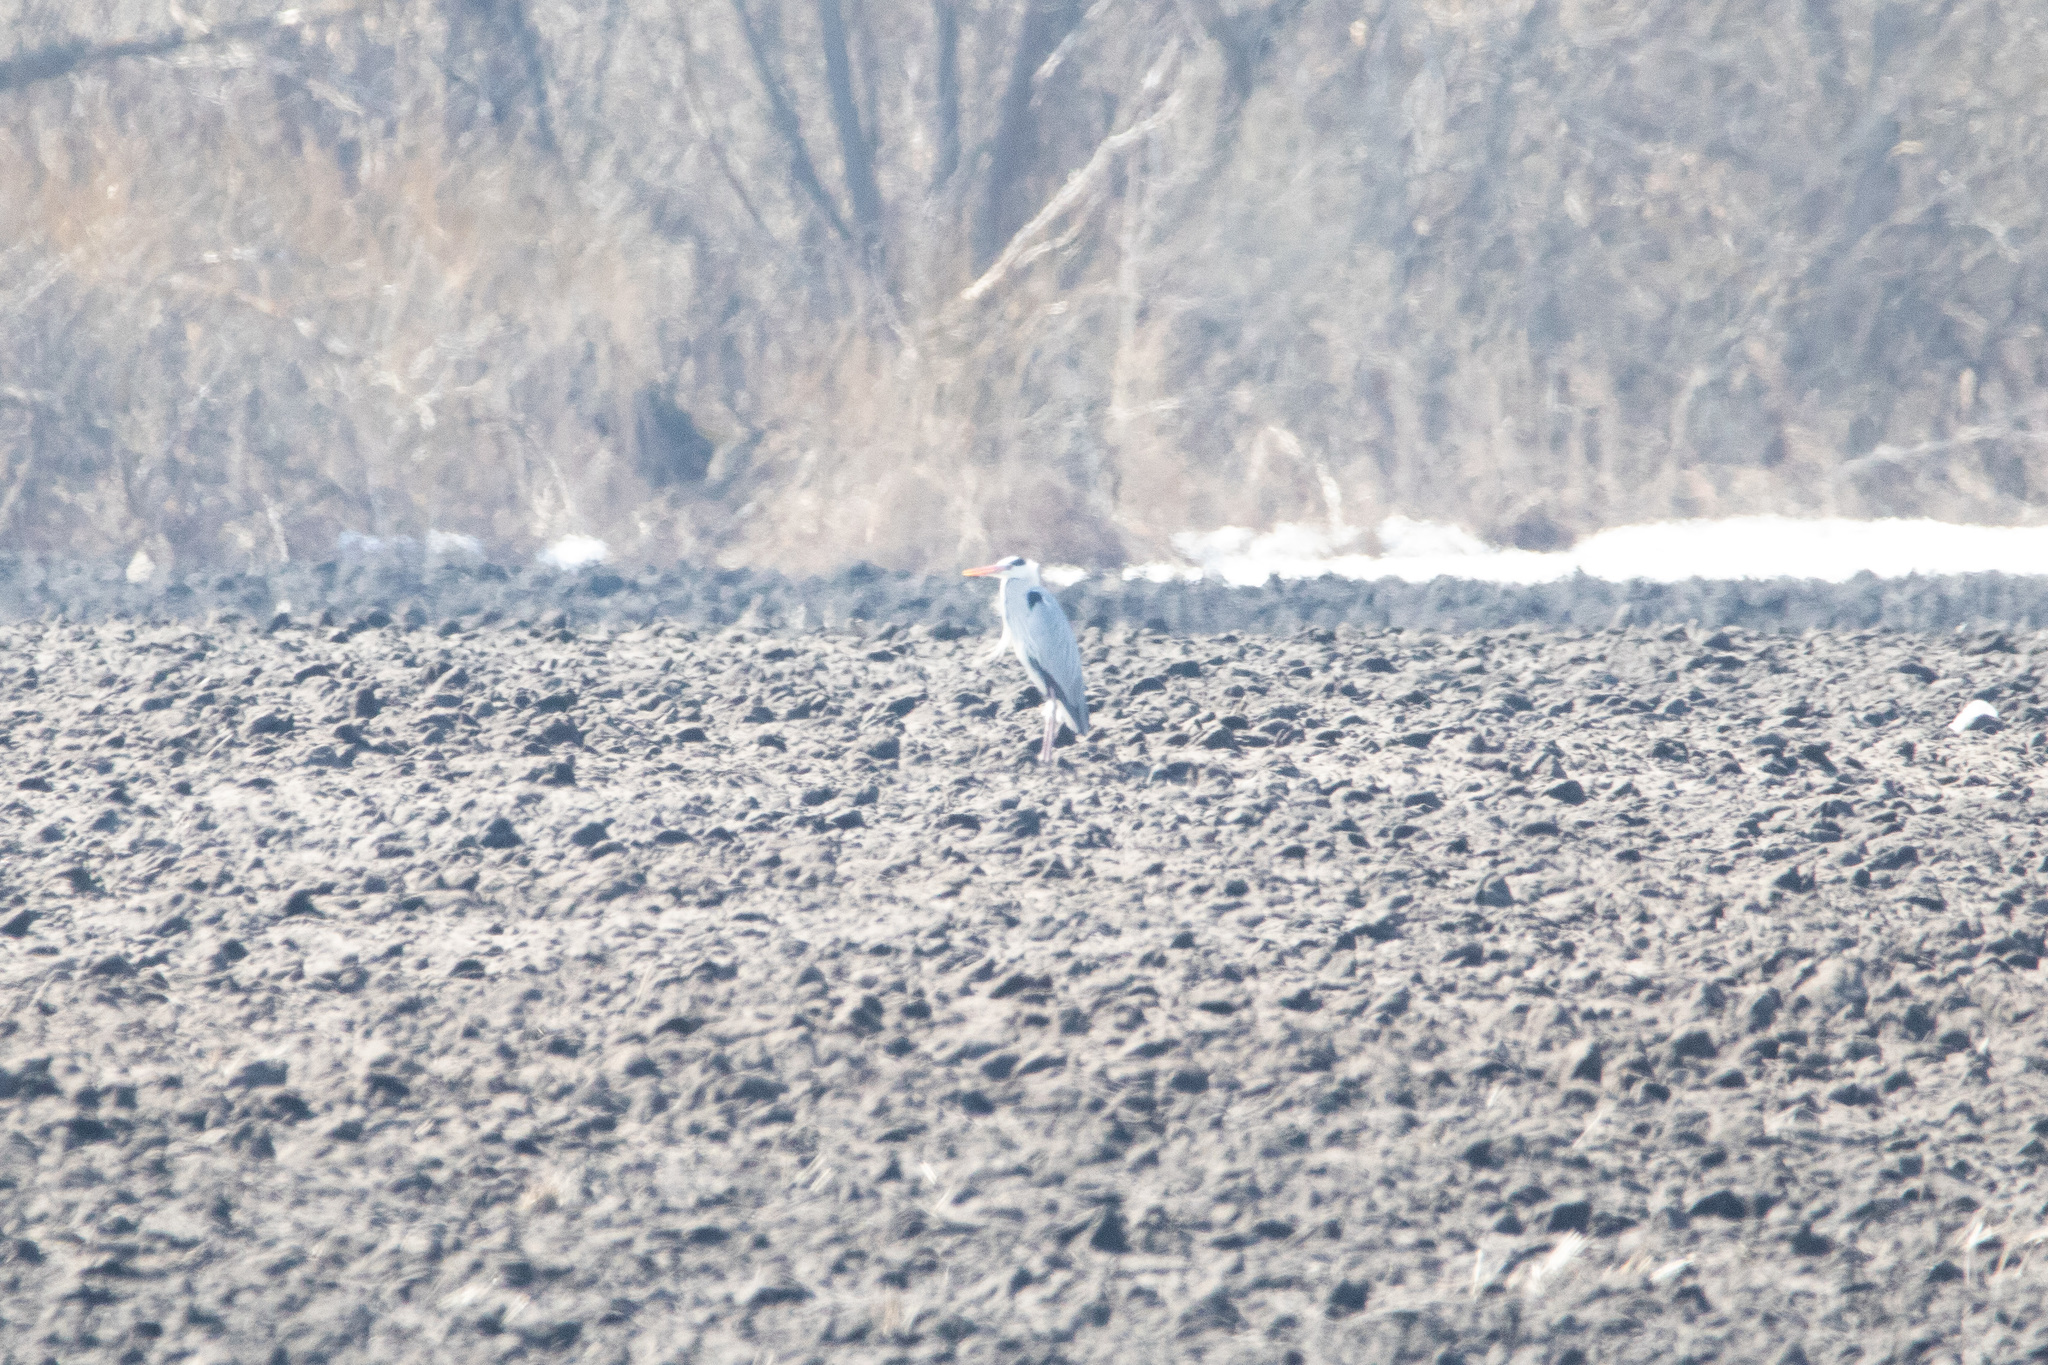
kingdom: Animalia
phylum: Chordata
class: Aves
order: Pelecaniformes
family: Ardeidae
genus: Ardea
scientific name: Ardea cinerea
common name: Grey heron
